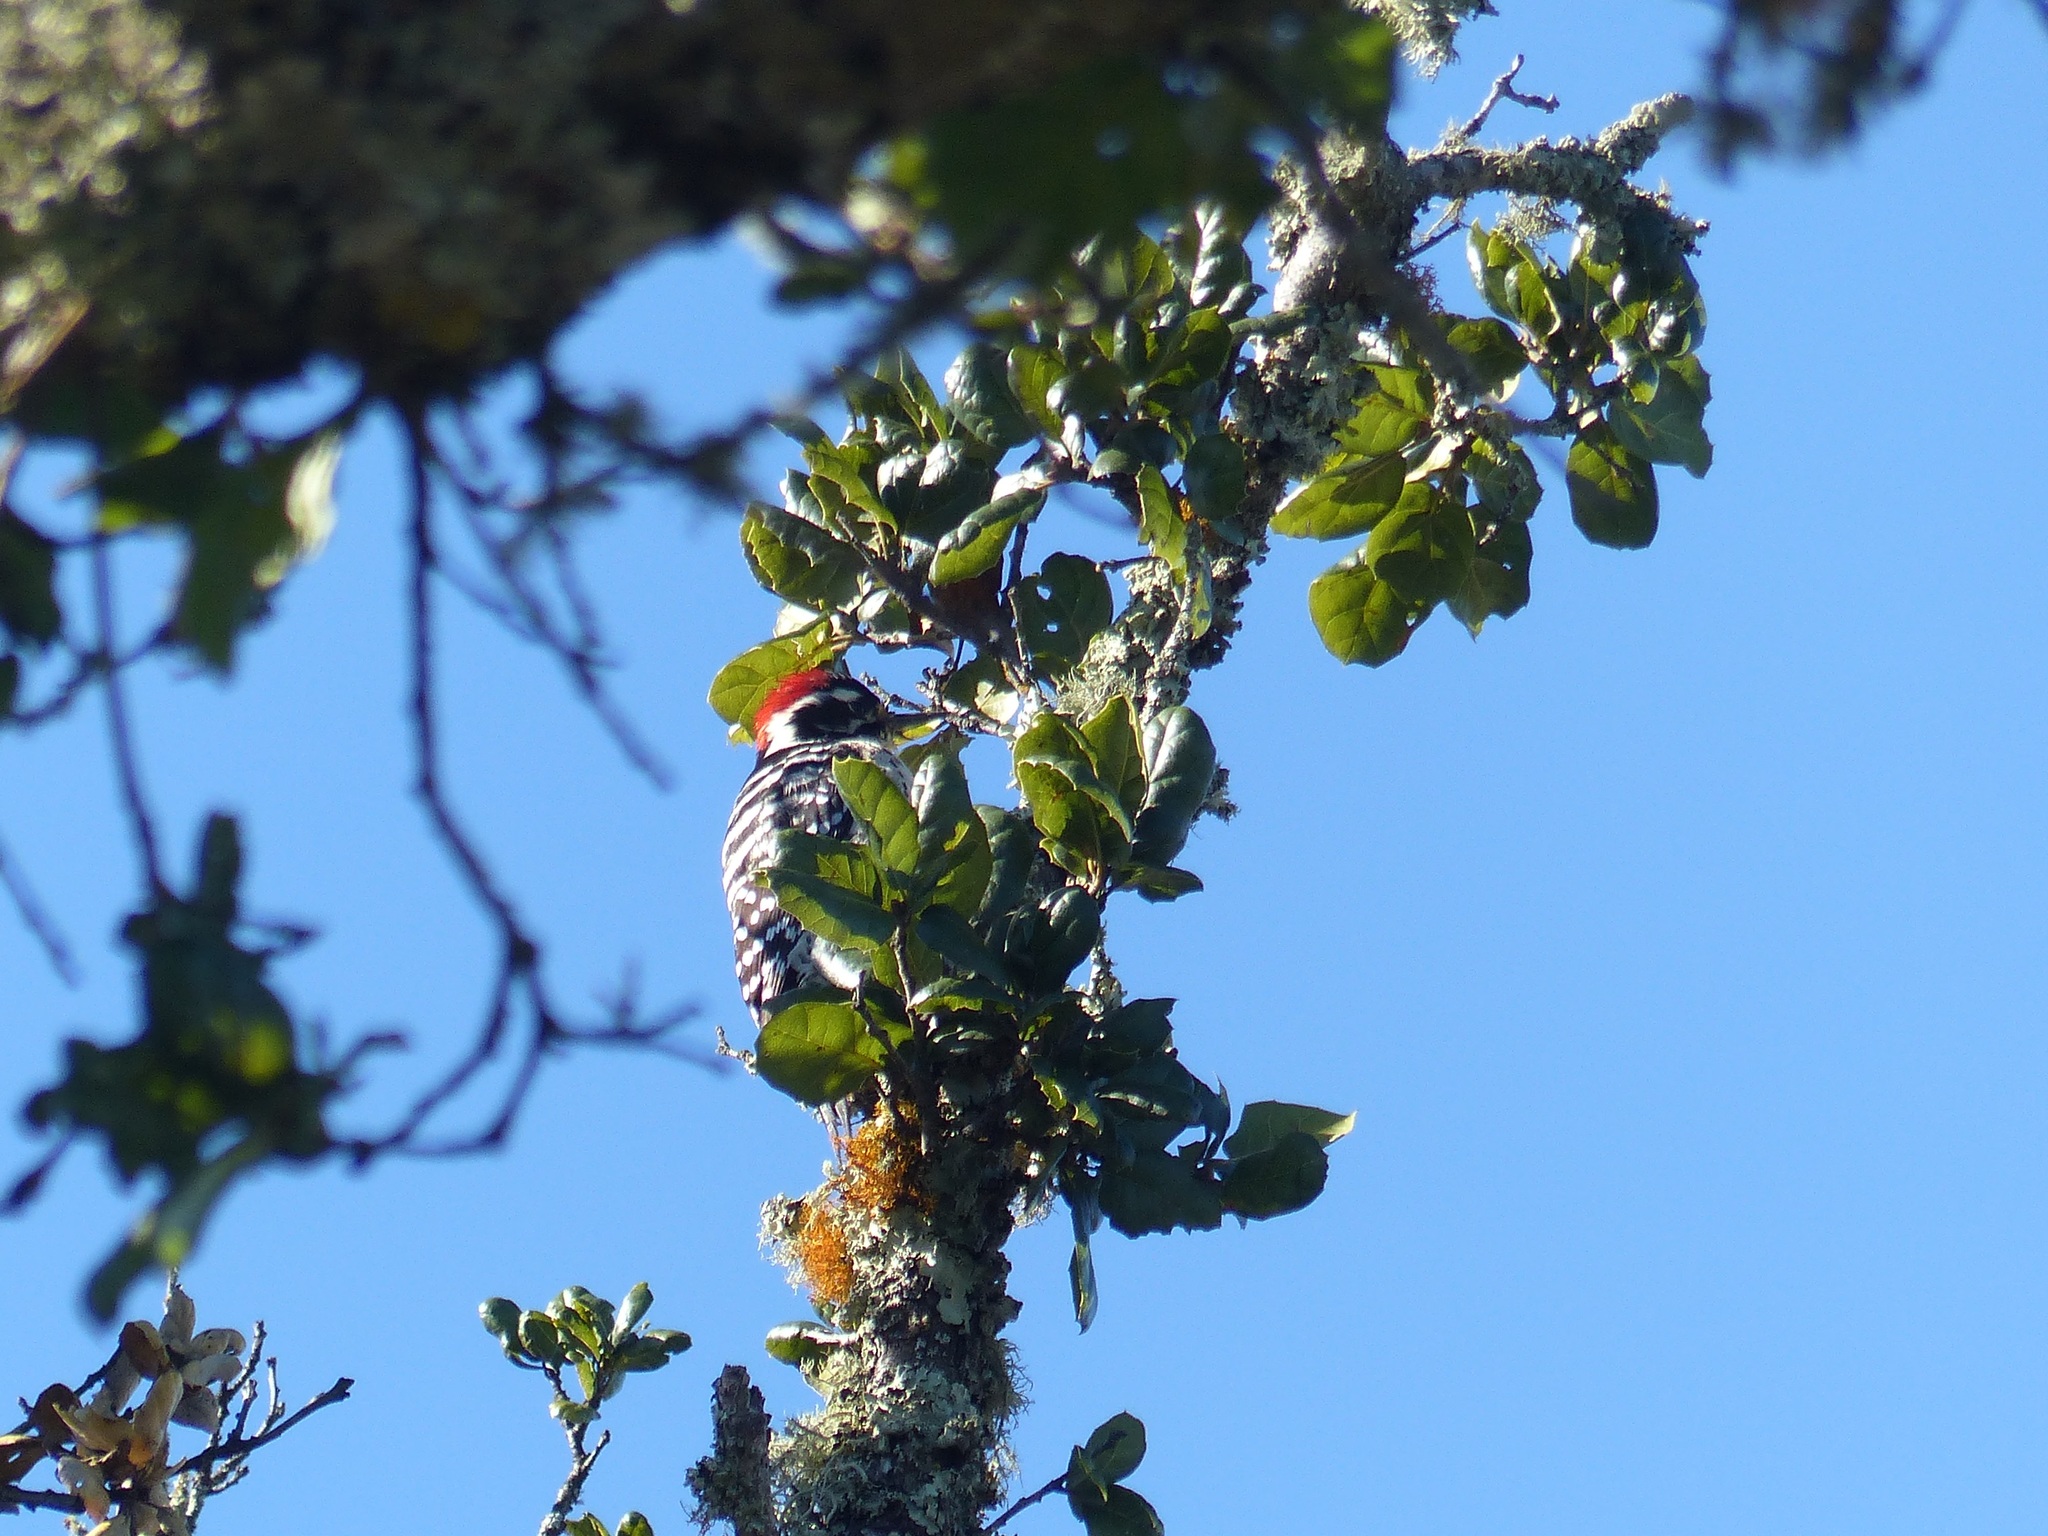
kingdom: Animalia
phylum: Chordata
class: Aves
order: Piciformes
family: Picidae
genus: Dryobates
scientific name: Dryobates nuttallii
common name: Nuttall's woodpecker
